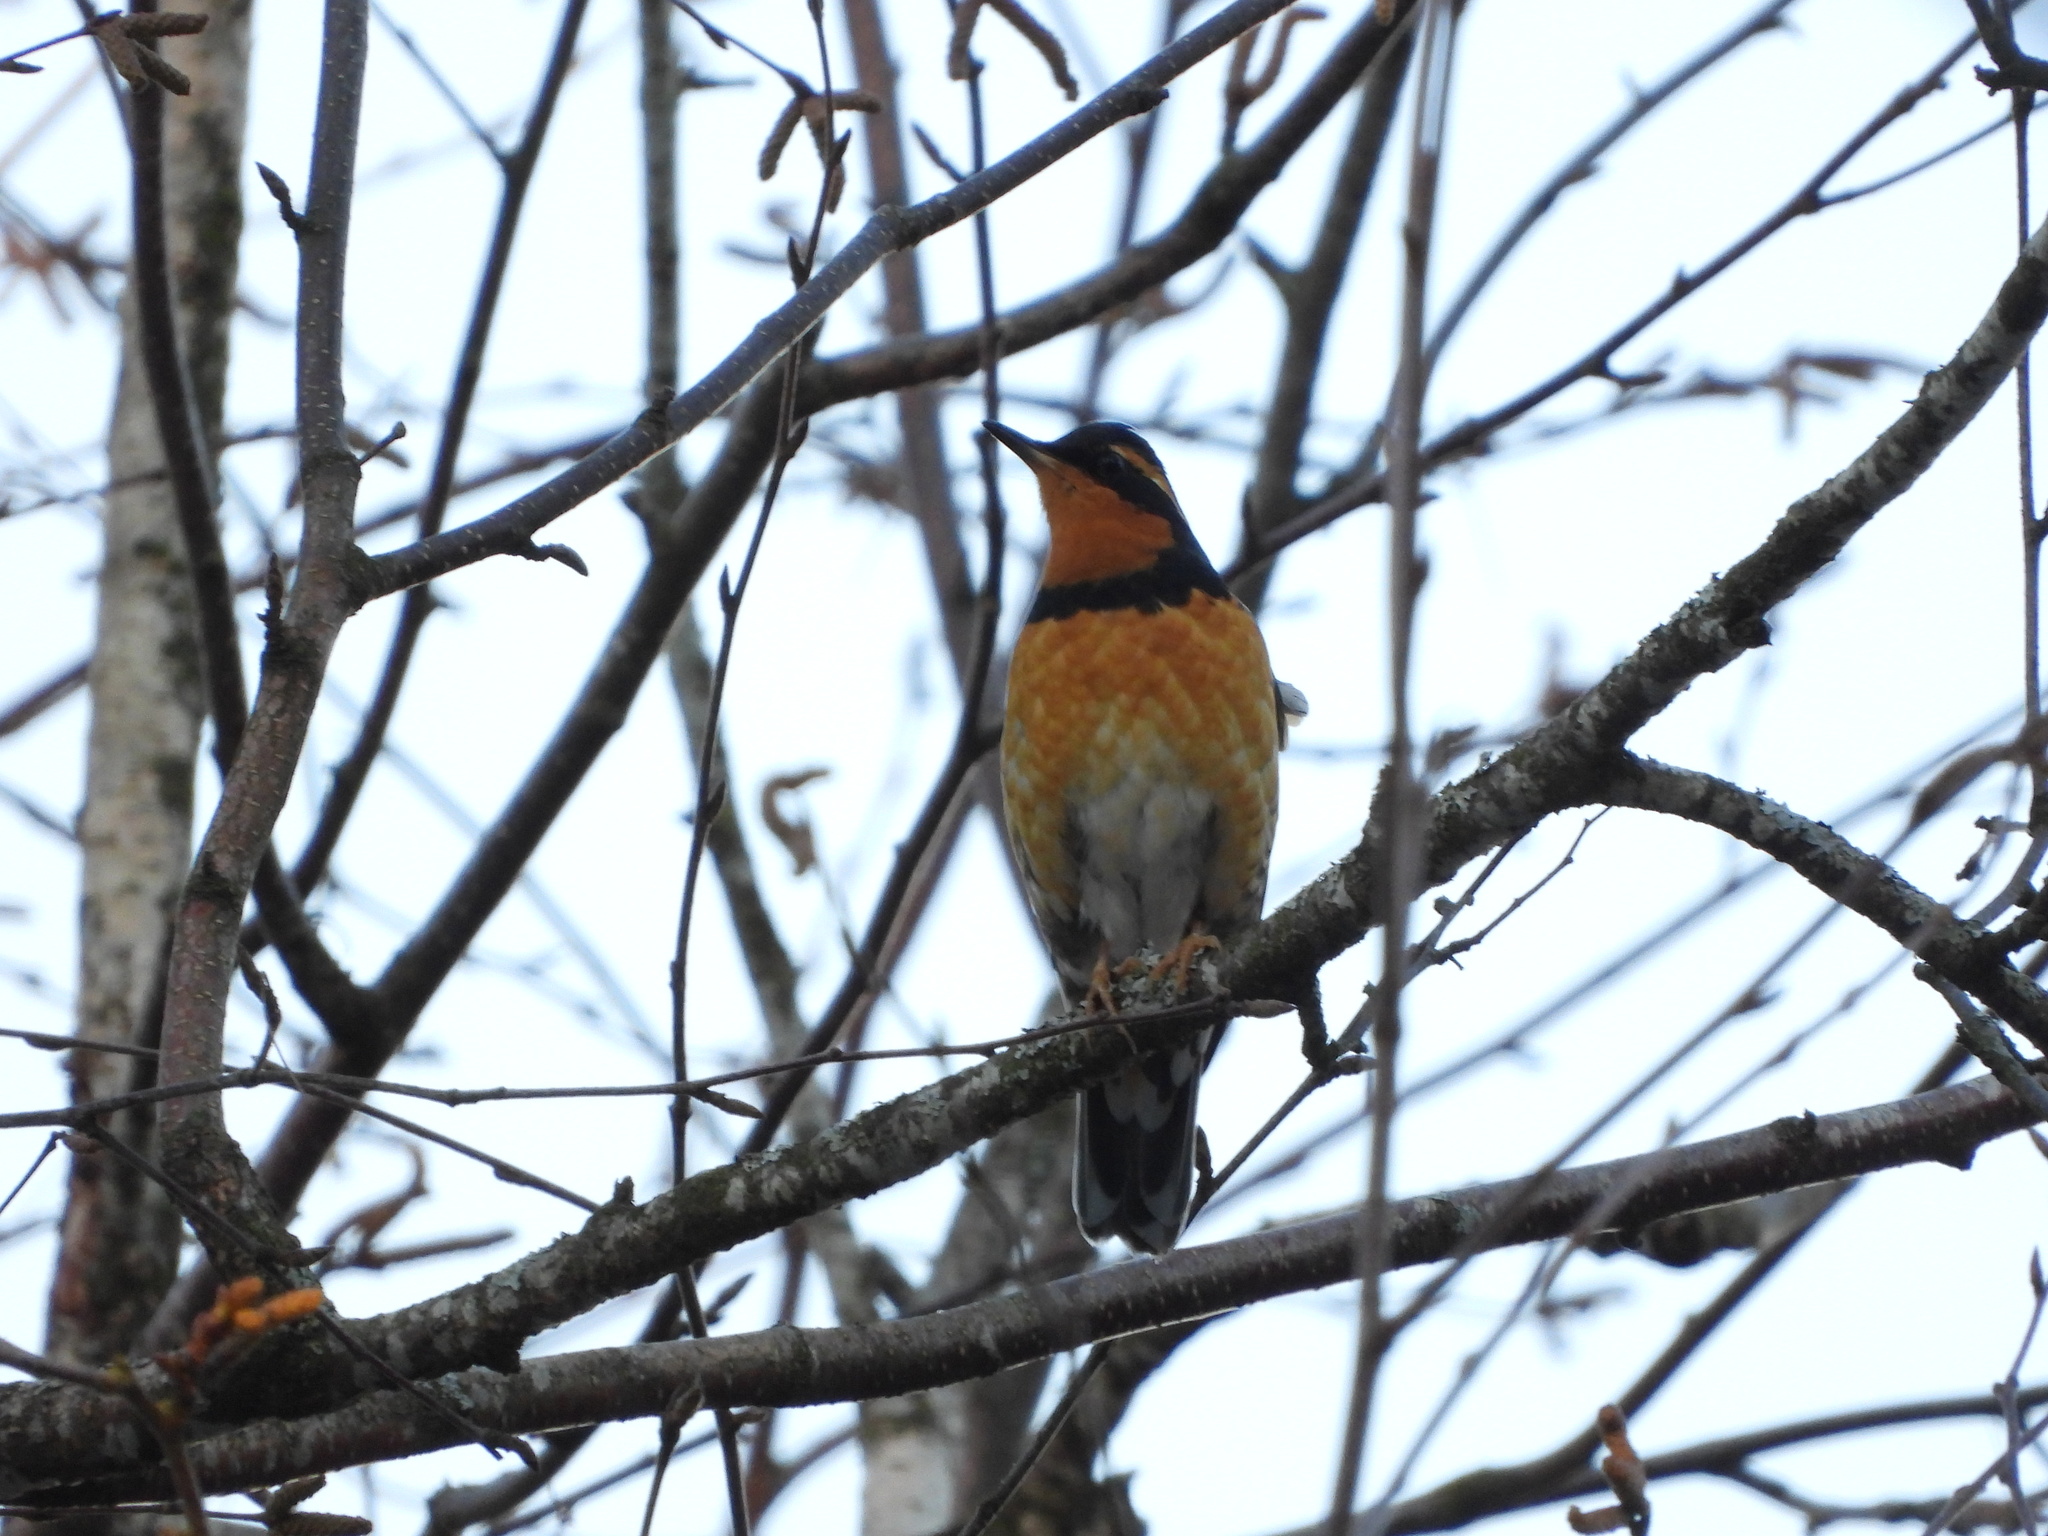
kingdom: Animalia
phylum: Chordata
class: Aves
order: Passeriformes
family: Turdidae
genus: Ixoreus
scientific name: Ixoreus naevius
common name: Varied thrush
